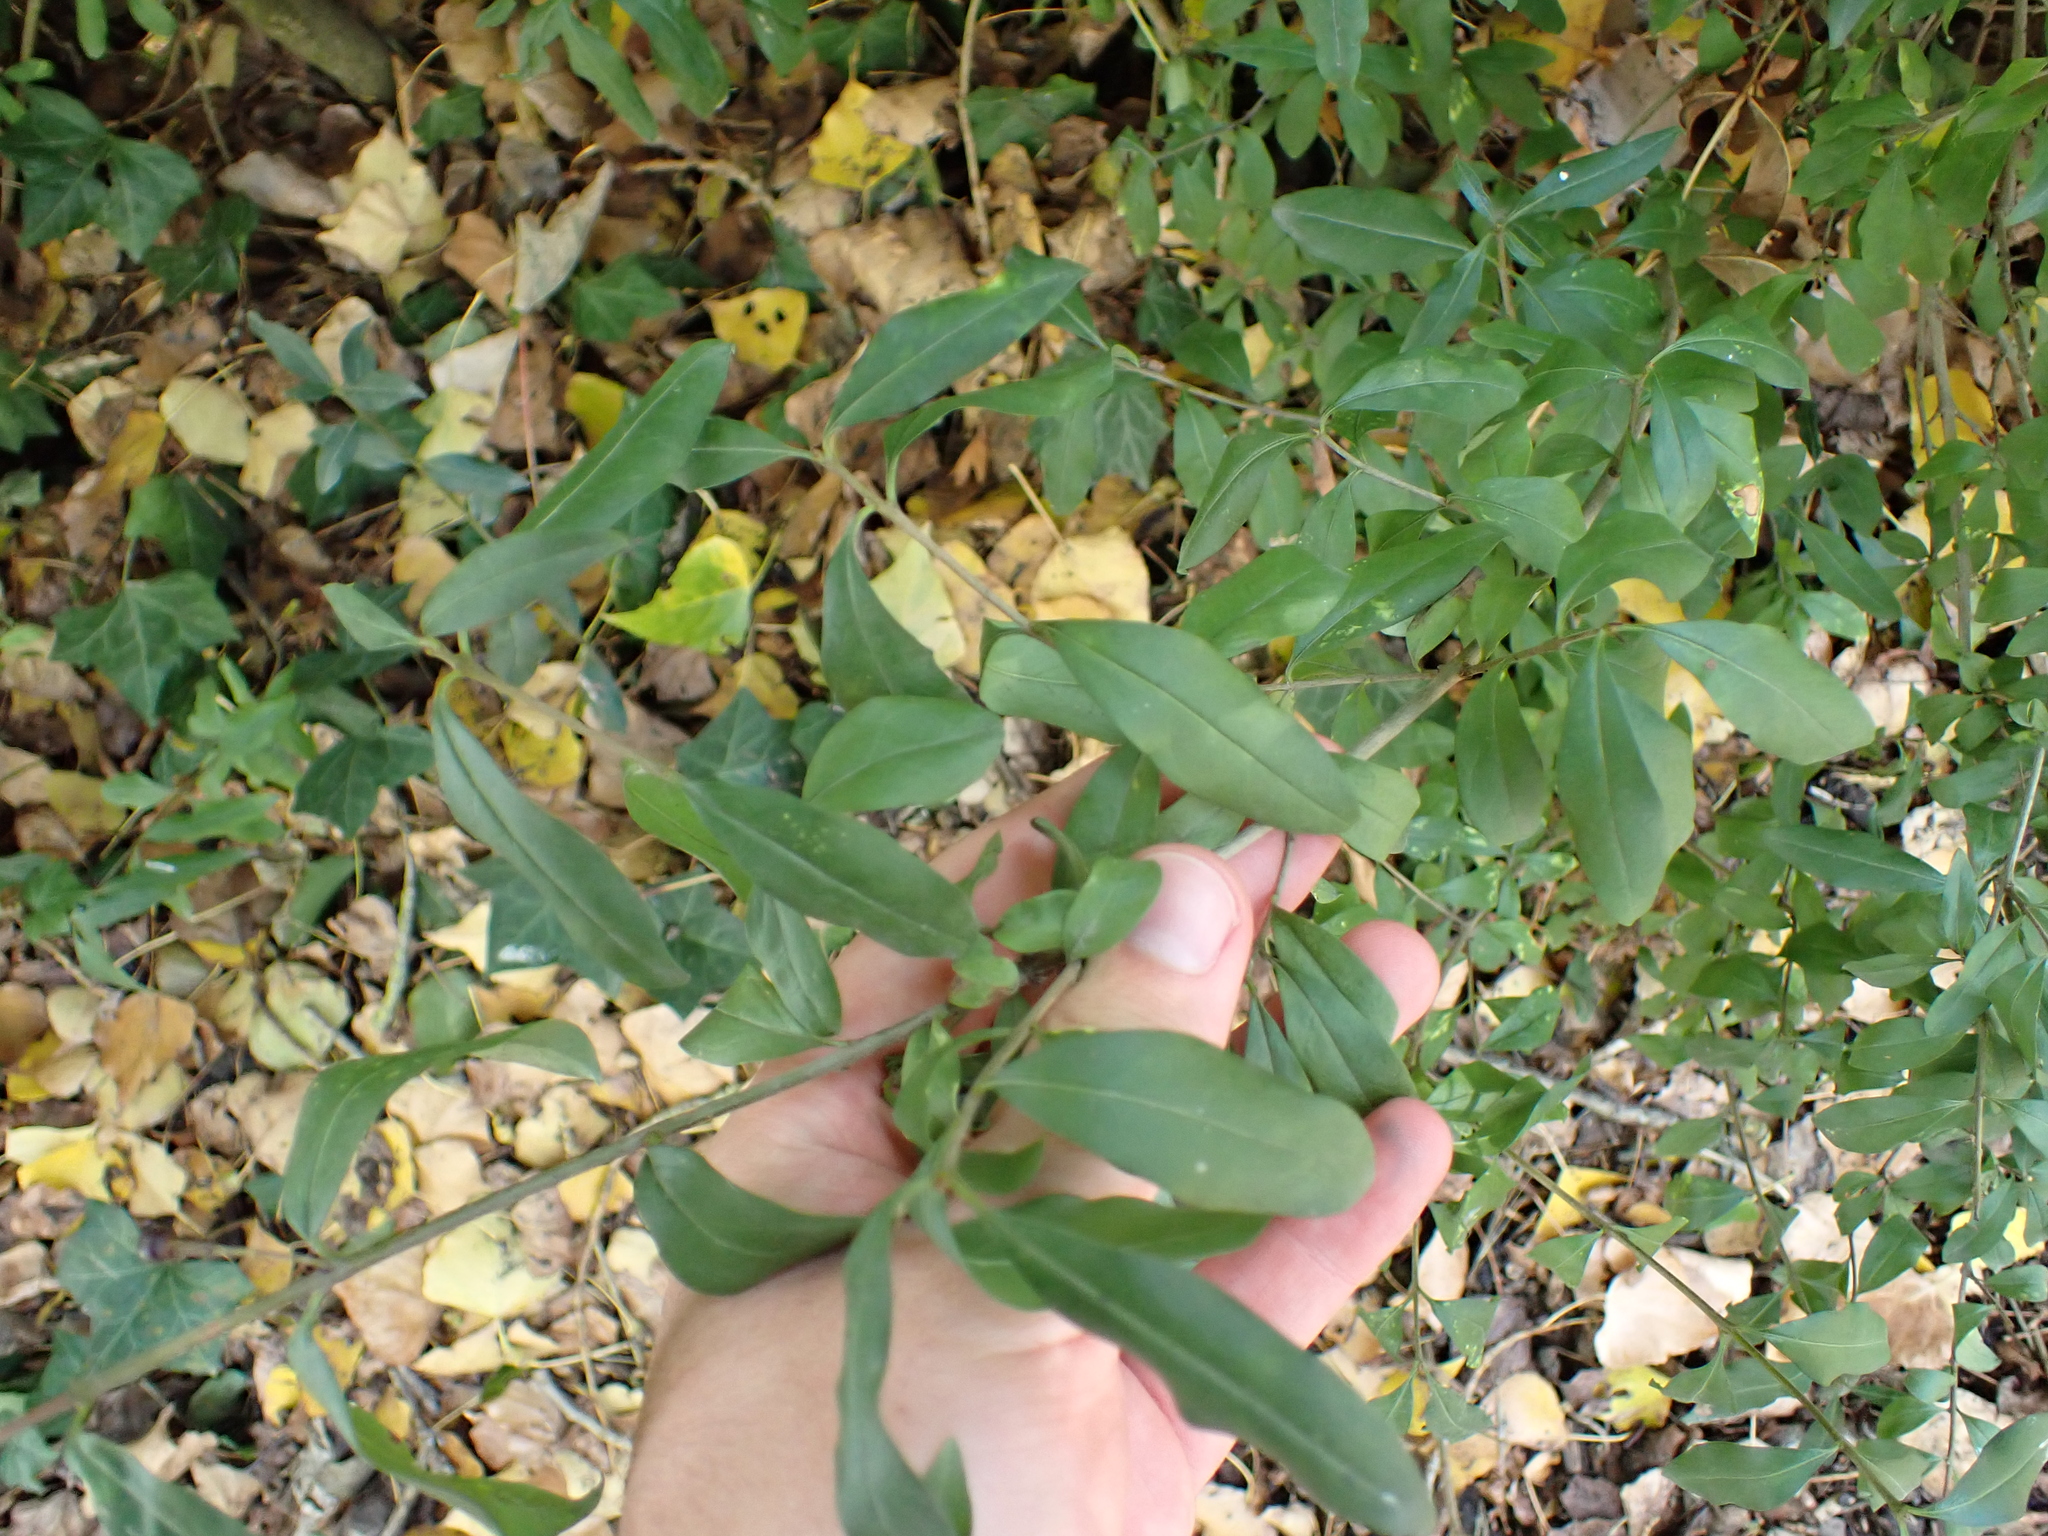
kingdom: Plantae
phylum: Tracheophyta
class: Magnoliopsida
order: Lamiales
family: Oleaceae
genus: Ligustrum
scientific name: Ligustrum vulgare
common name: Wild privet
